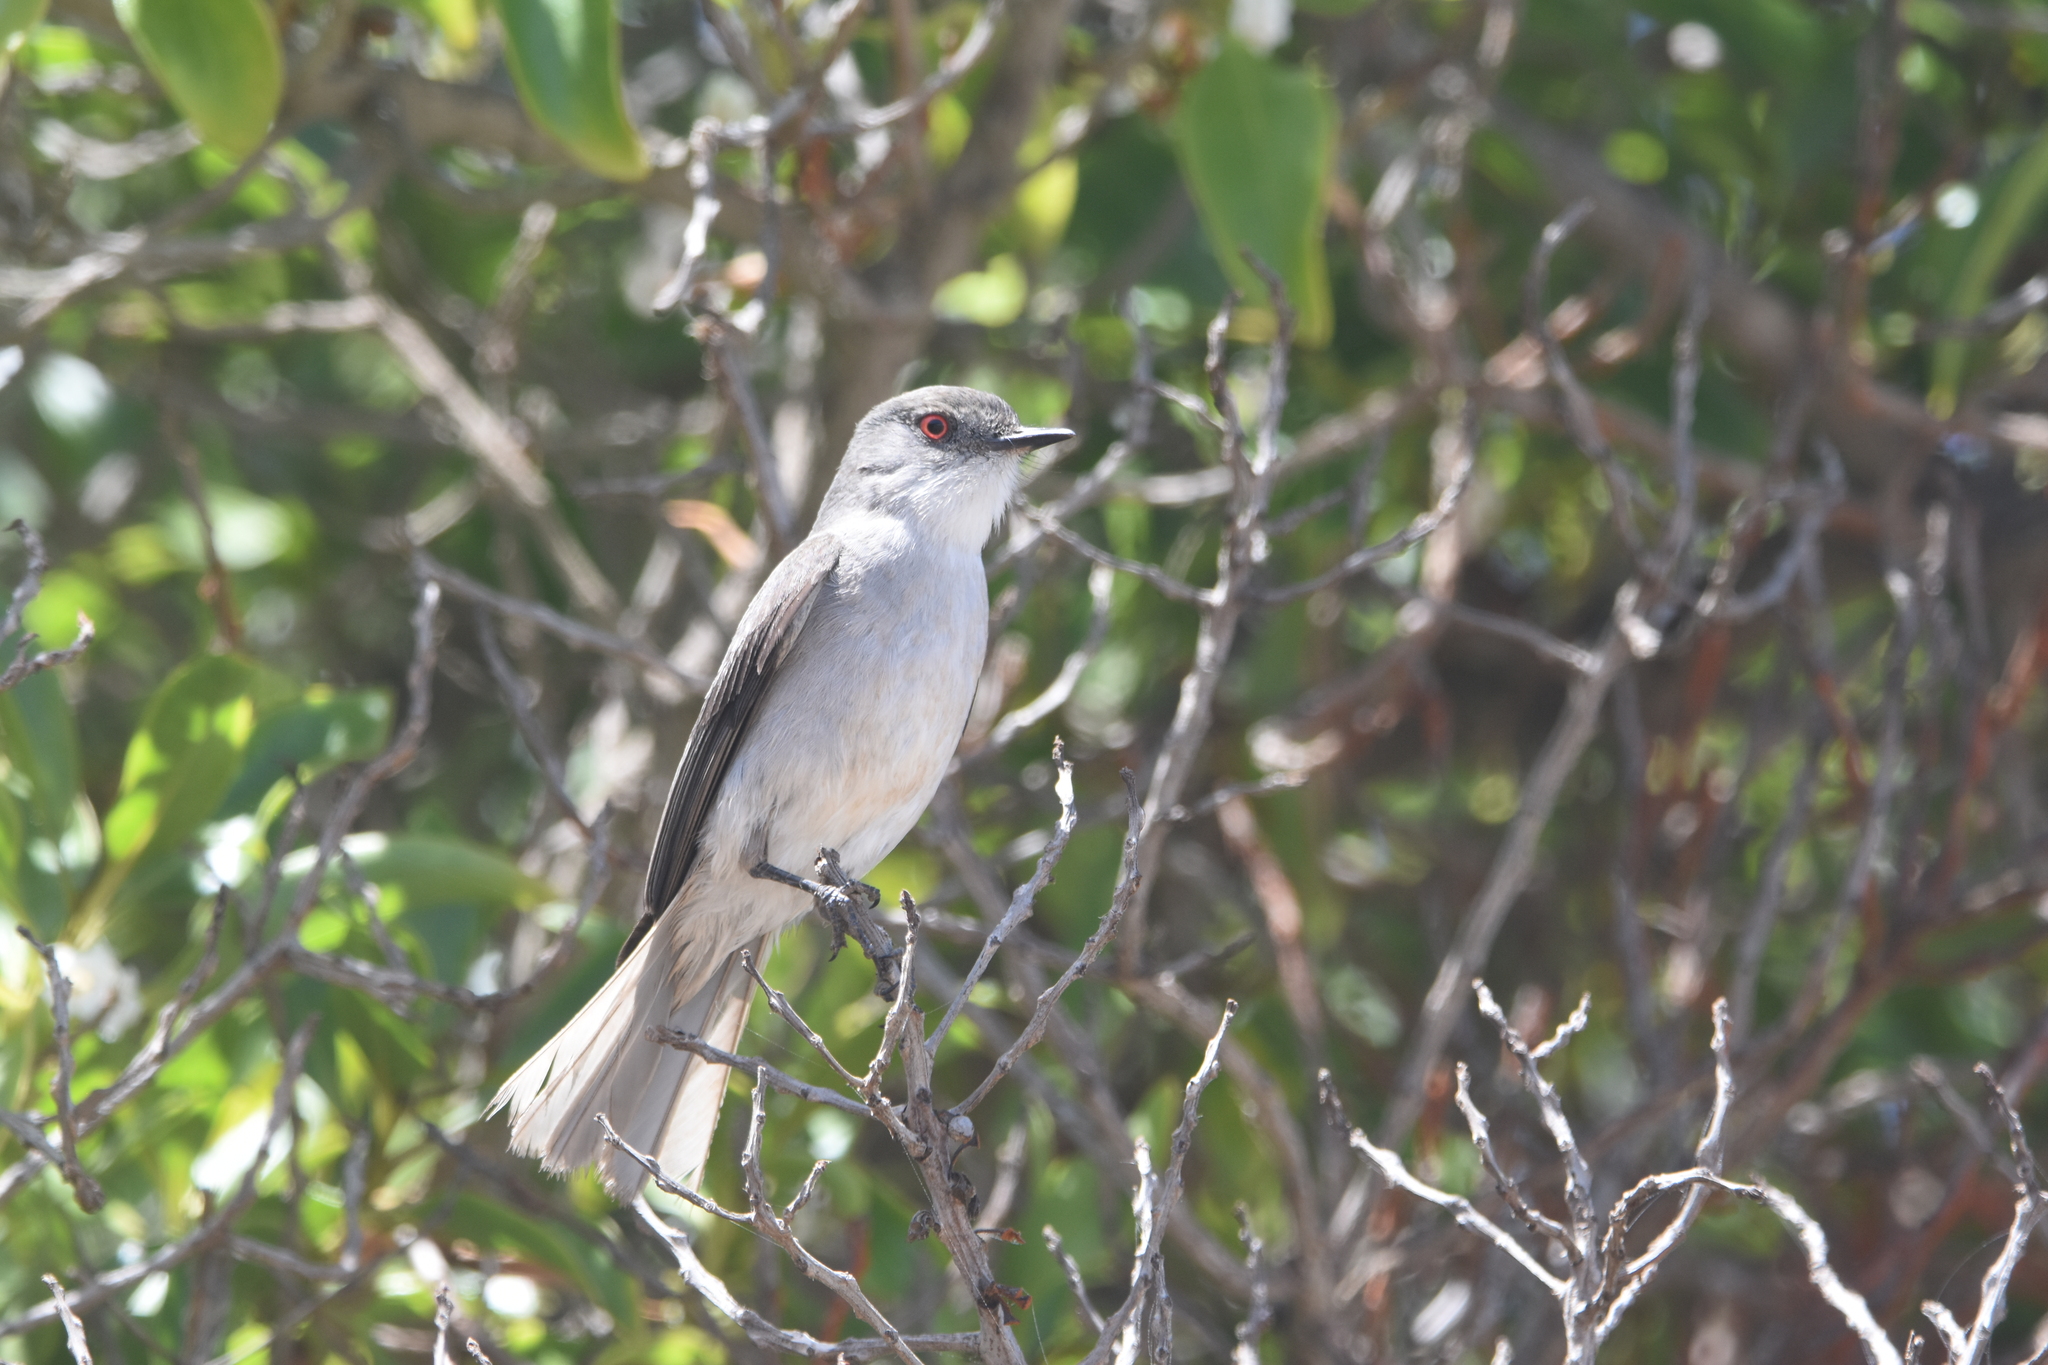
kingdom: Animalia
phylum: Chordata
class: Aves
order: Passeriformes
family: Tyrannidae
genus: Xolmis
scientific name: Xolmis pyrope
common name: Fire-eyed diucon
